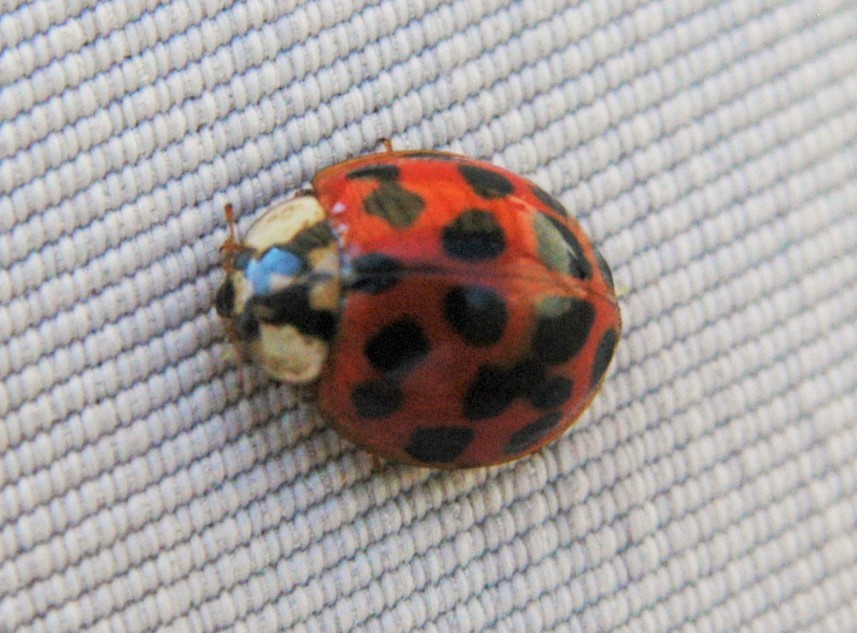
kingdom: Animalia
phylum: Arthropoda
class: Insecta
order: Coleoptera
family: Coccinellidae
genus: Harmonia
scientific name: Harmonia axyridis
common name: Harlequin ladybird
